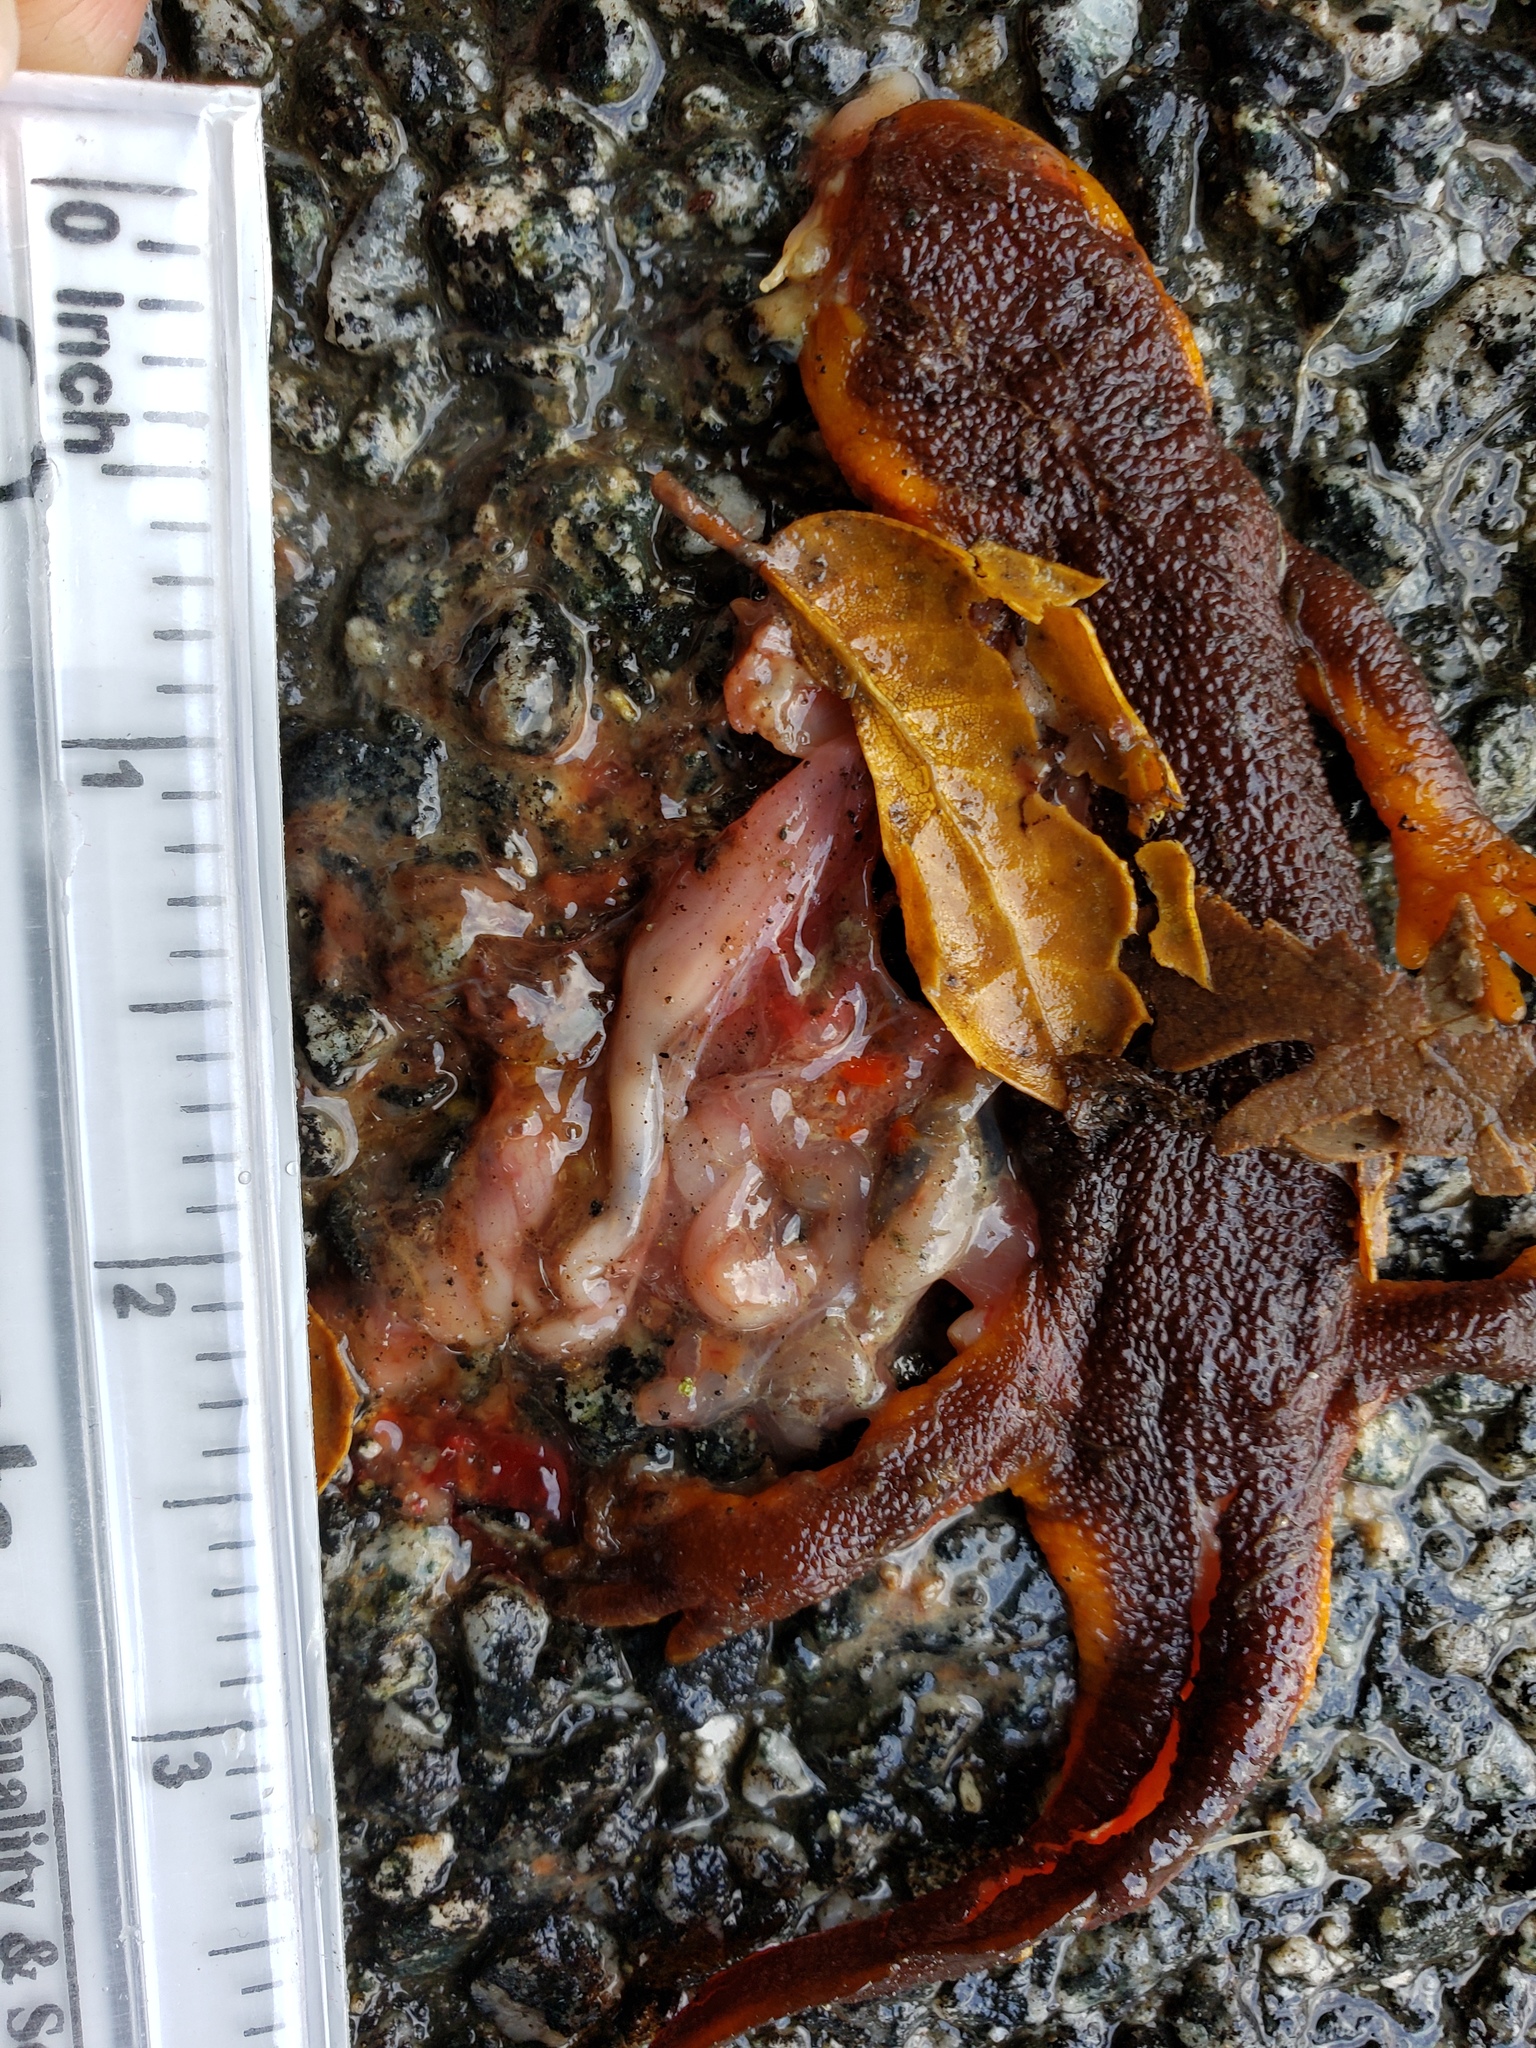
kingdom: Animalia
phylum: Chordata
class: Amphibia
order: Caudata
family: Salamandridae
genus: Taricha
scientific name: Taricha
